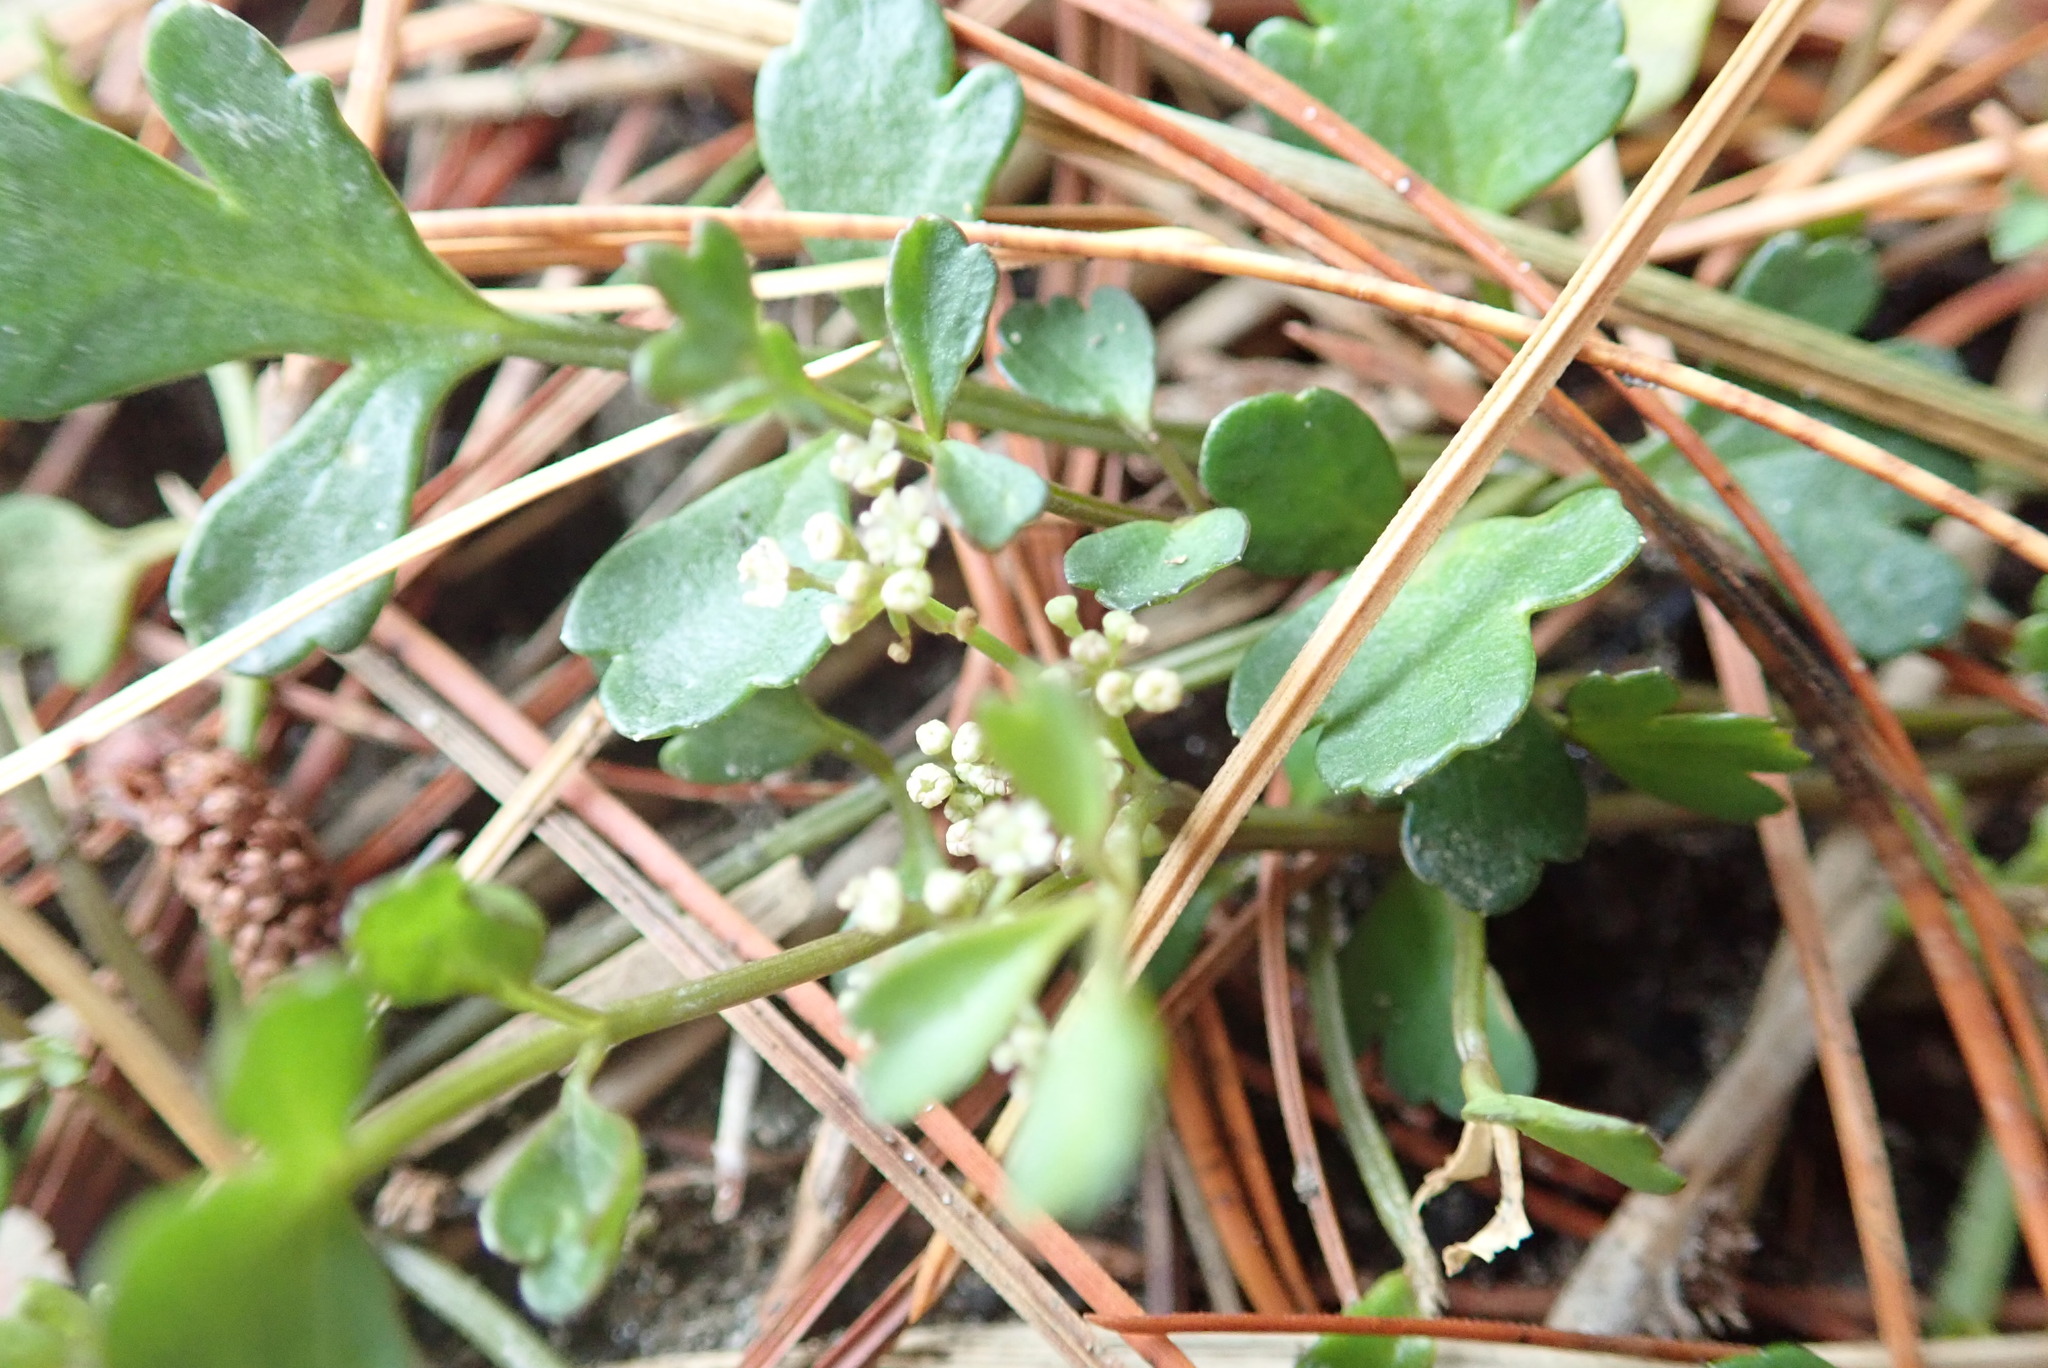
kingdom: Plantae
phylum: Tracheophyta
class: Magnoliopsida
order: Apiales
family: Apiaceae
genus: Apium
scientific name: Apium prostratum
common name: Prostrate marshwort
